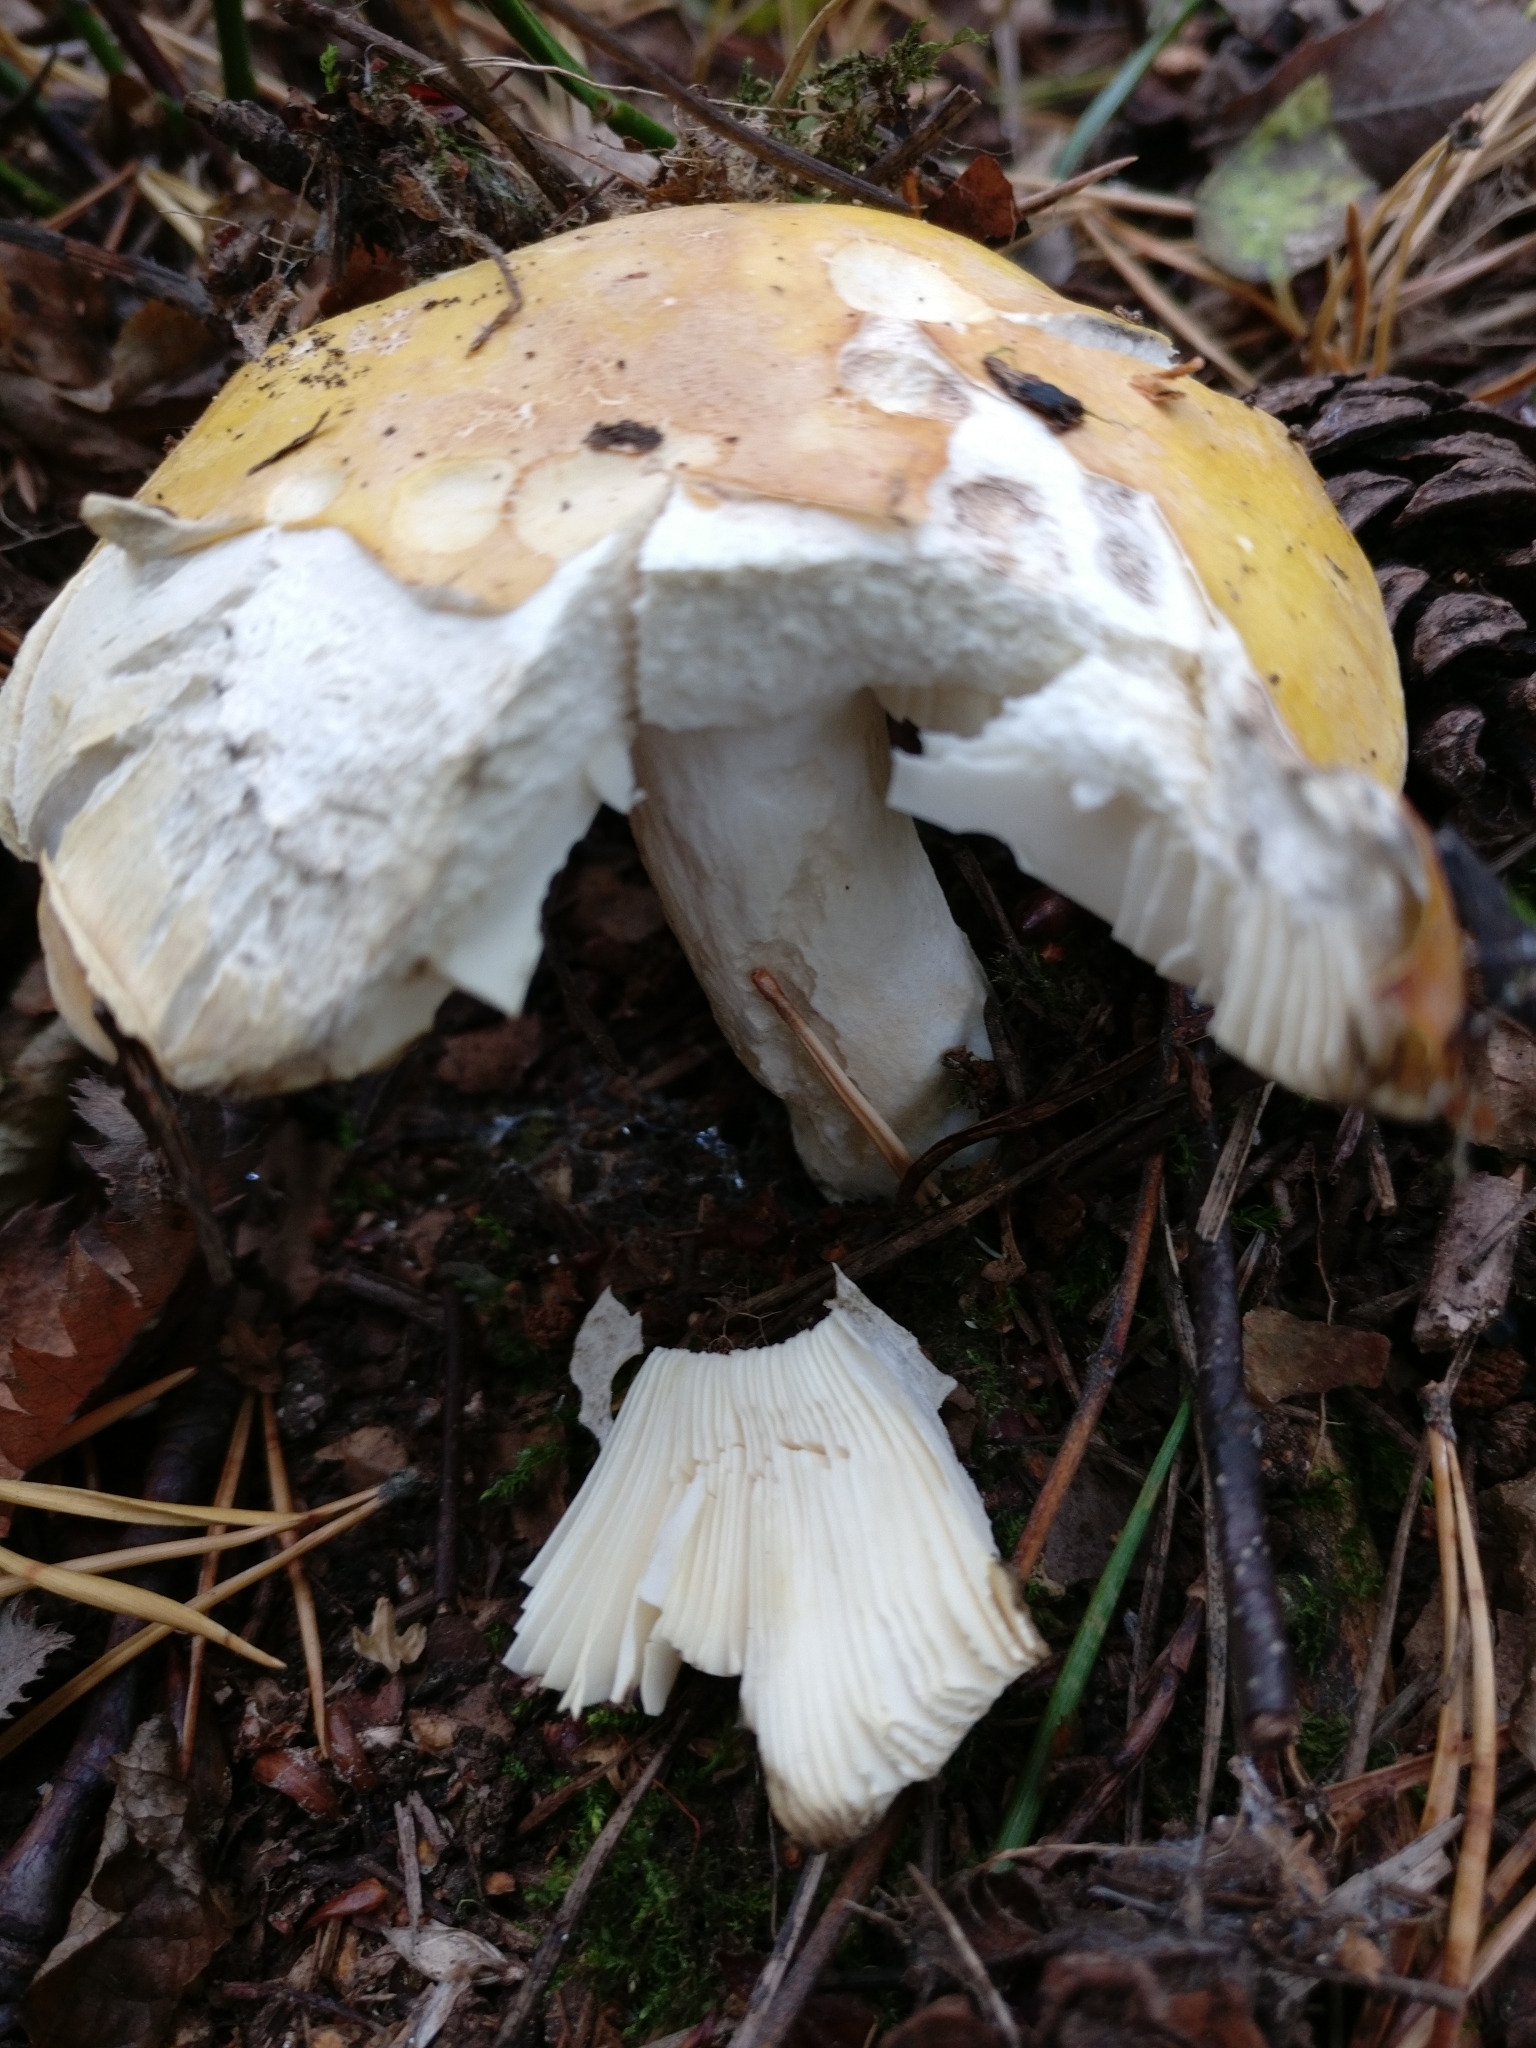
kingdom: Fungi
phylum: Basidiomycota
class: Agaricomycetes
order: Russulales
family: Russulaceae
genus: Russula
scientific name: Russula claroflava
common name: The yellow swamp brittlegill
